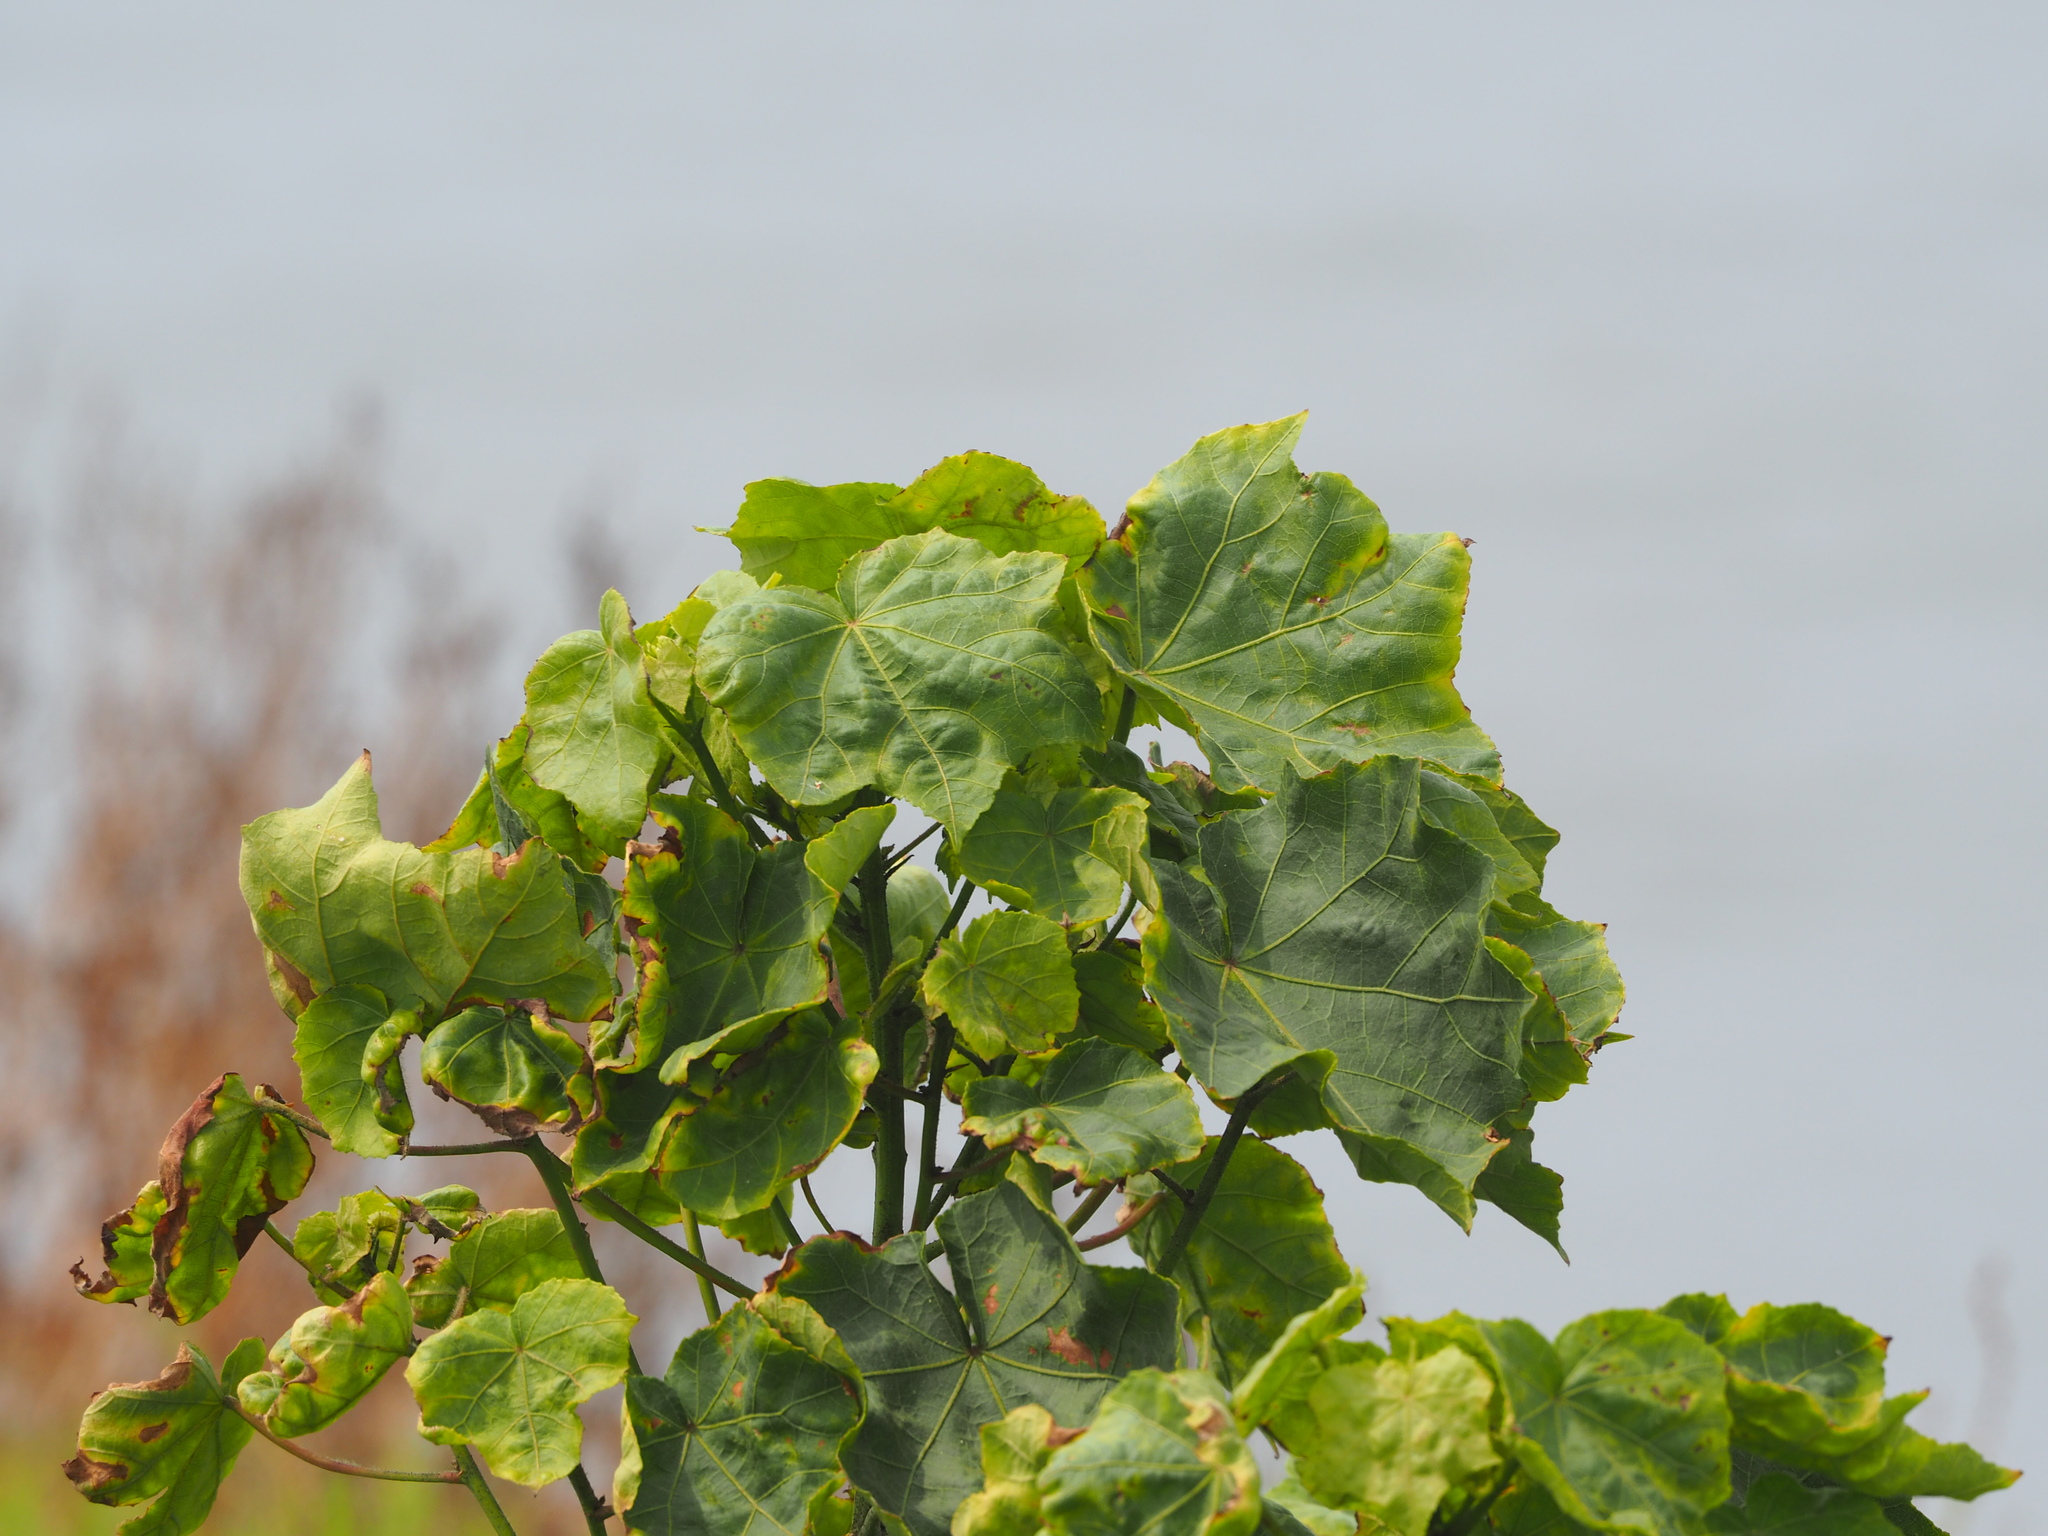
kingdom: Plantae
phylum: Tracheophyta
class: Magnoliopsida
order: Malvales
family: Malvaceae
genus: Hibiscus
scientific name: Hibiscus taiwanensis
